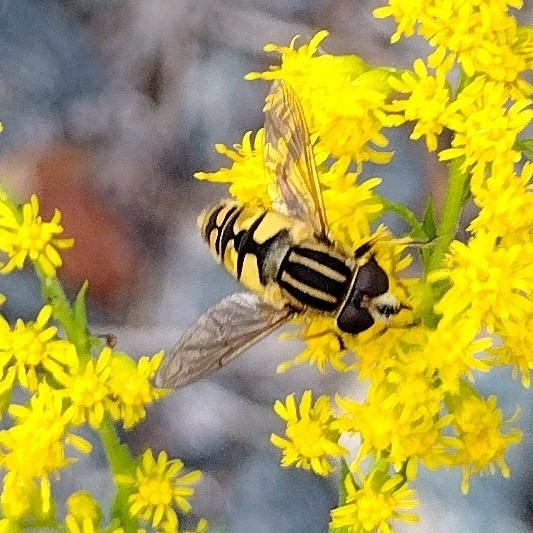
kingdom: Animalia
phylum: Arthropoda
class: Insecta
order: Diptera
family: Syrphidae
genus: Helophilus
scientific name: Helophilus pendulus
